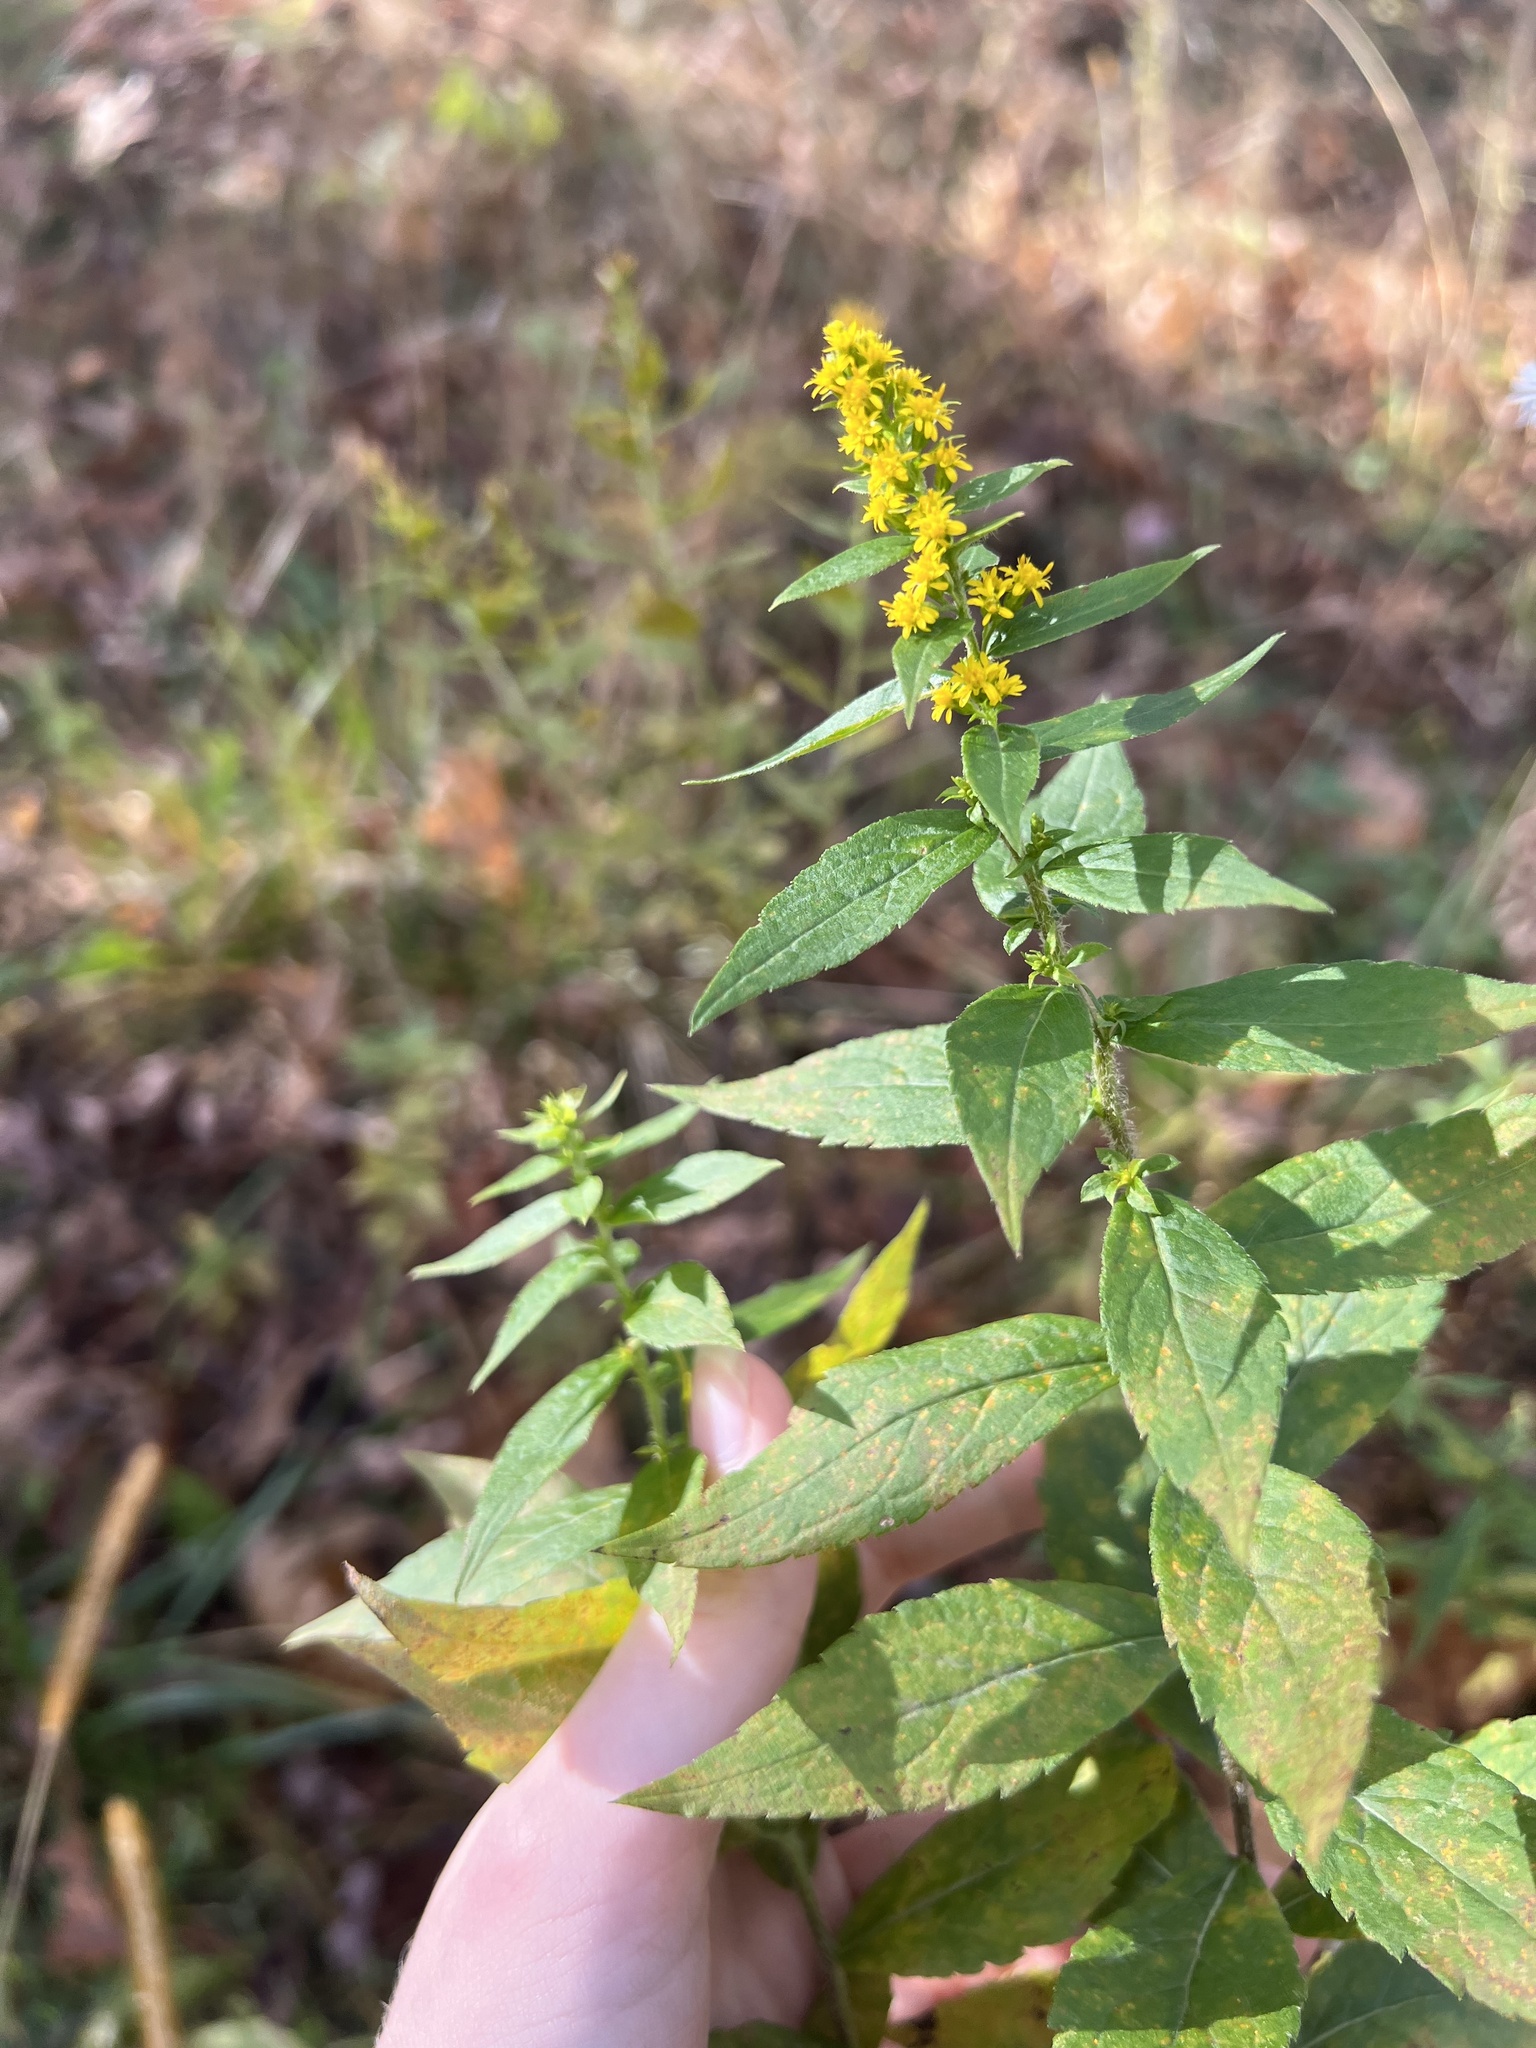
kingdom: Plantae
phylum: Tracheophyta
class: Magnoliopsida
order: Asterales
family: Asteraceae
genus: Solidago
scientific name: Solidago rugosa
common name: Rough-stemmed goldenrod
